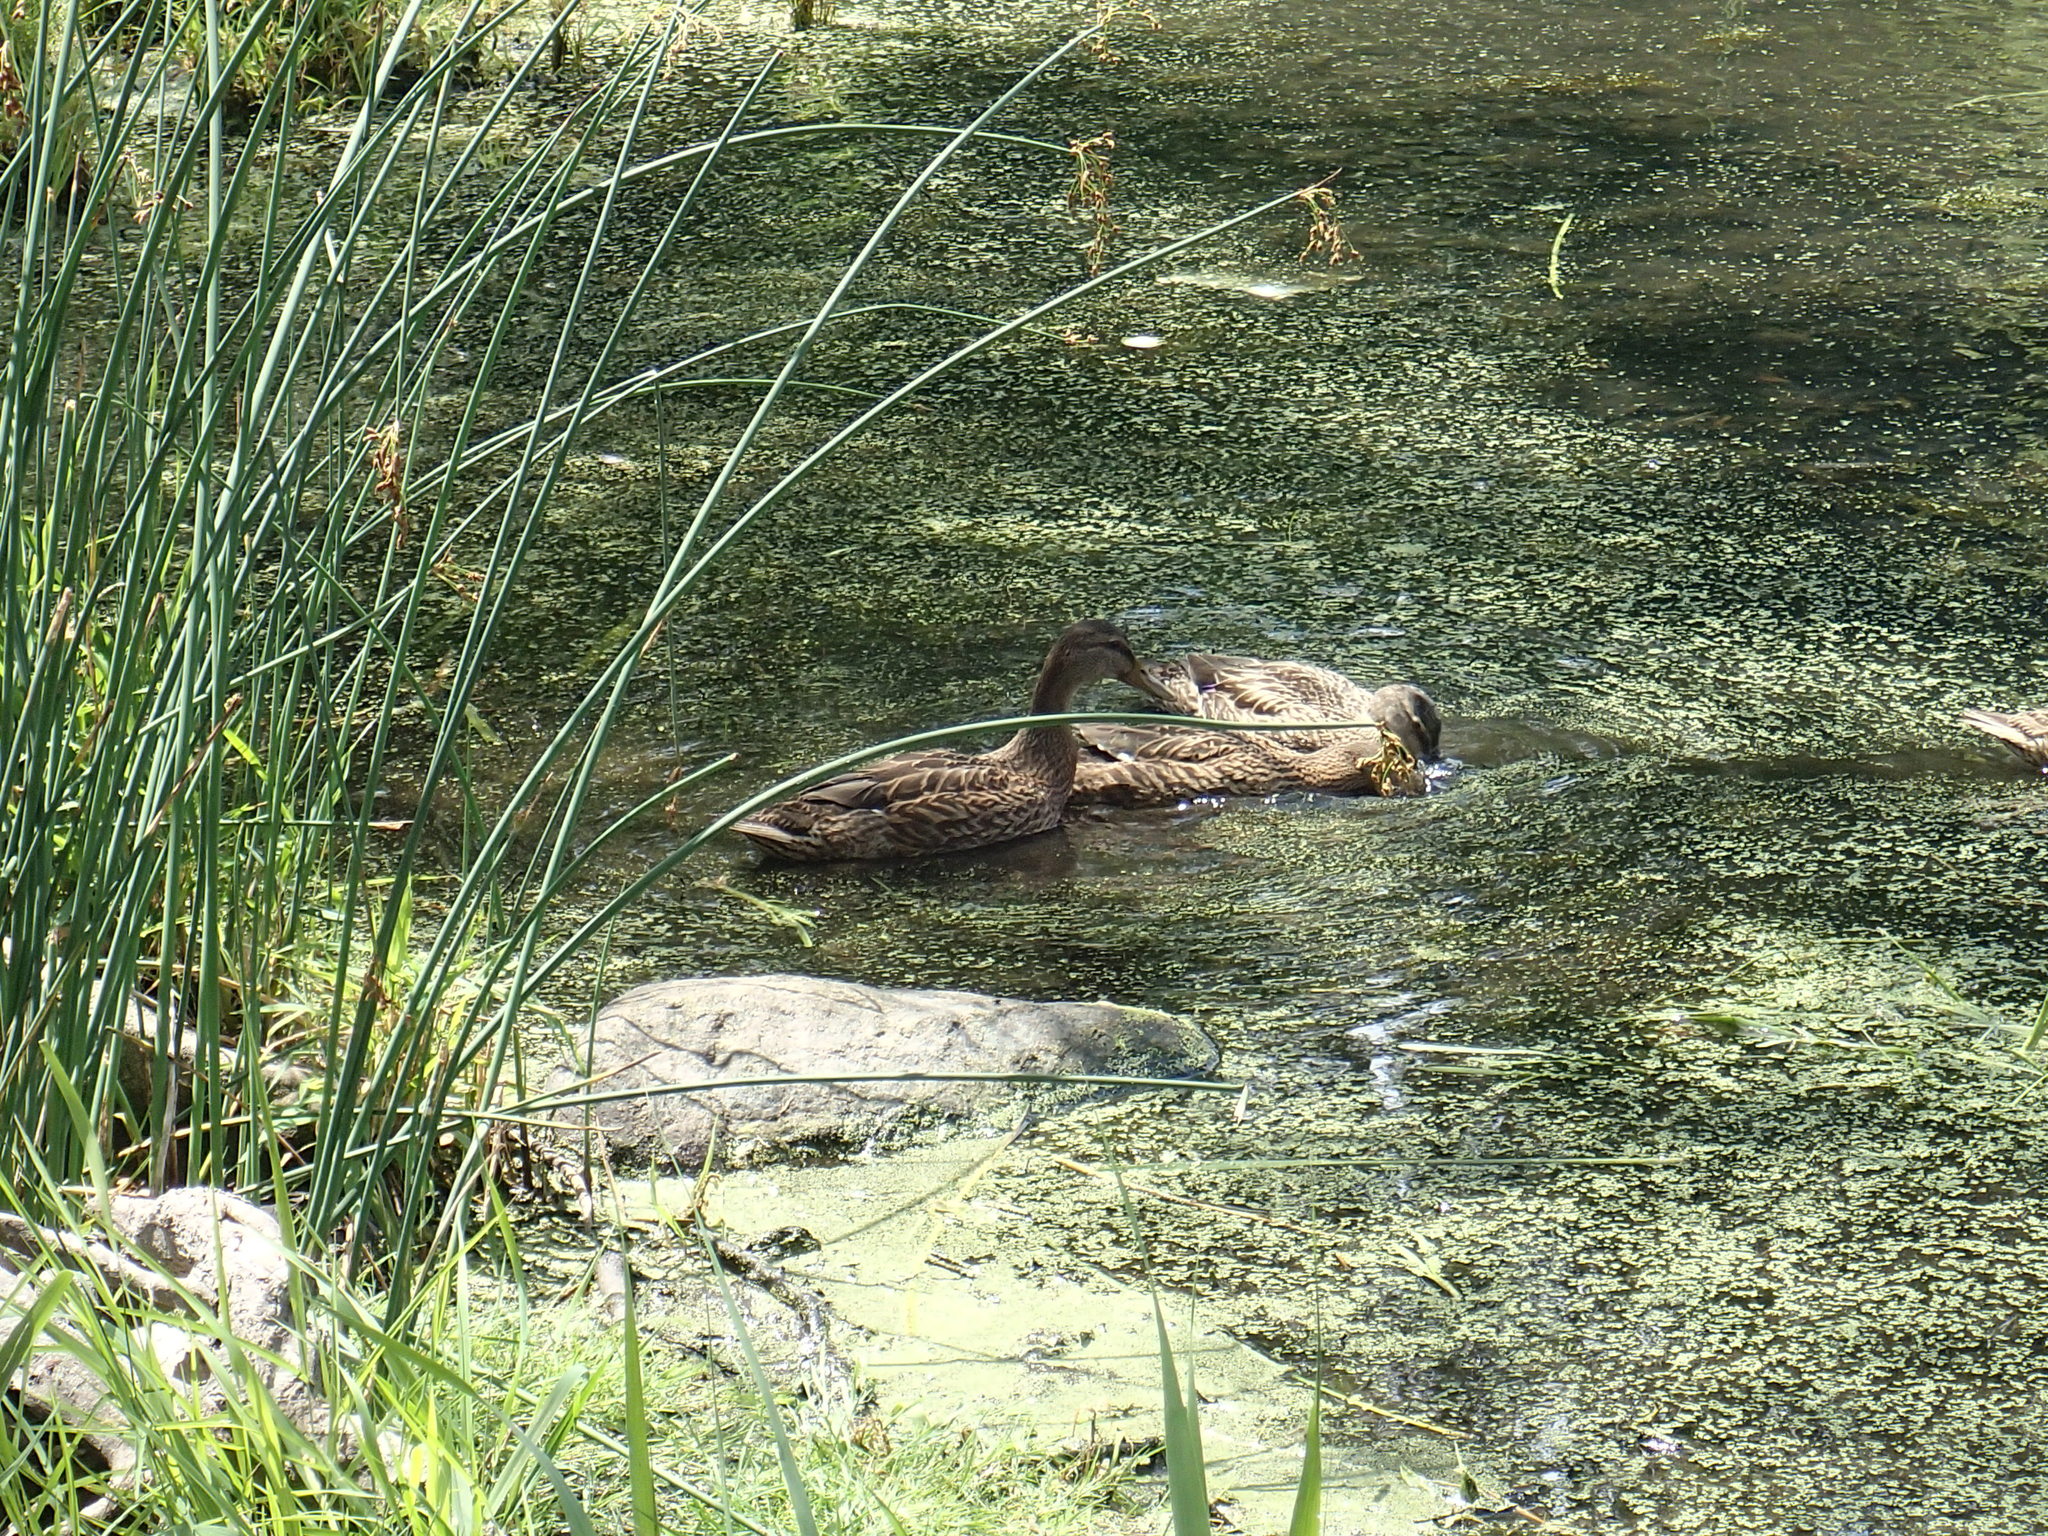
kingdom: Animalia
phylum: Chordata
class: Aves
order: Anseriformes
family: Anatidae
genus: Anas
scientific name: Anas
